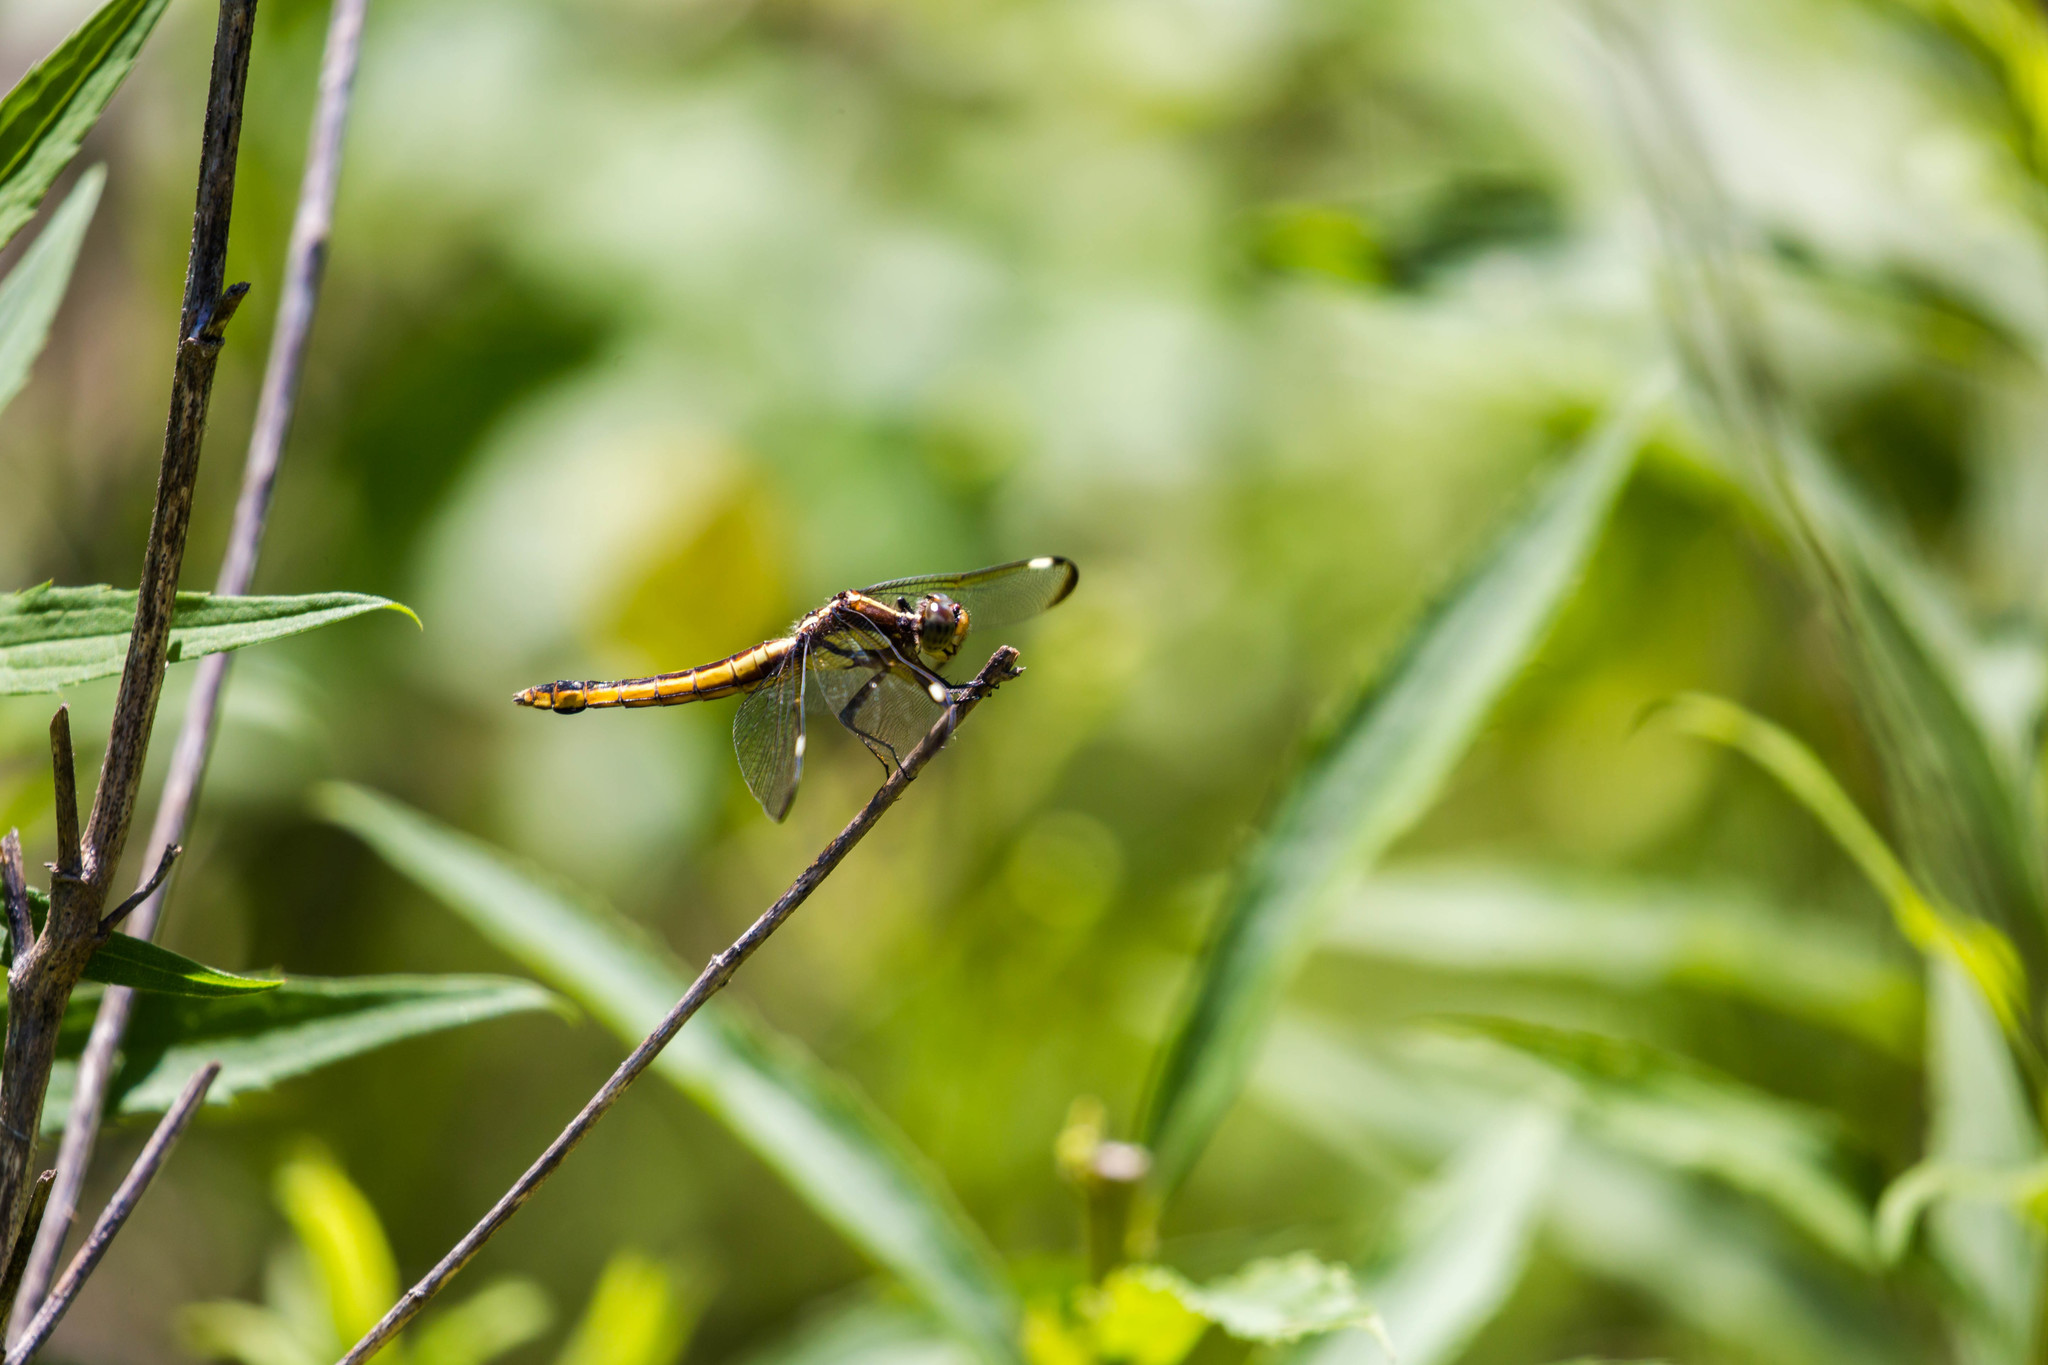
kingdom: Animalia
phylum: Arthropoda
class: Insecta
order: Odonata
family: Libellulidae
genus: Libellula
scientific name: Libellula cyanea
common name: Spangled skimmer
